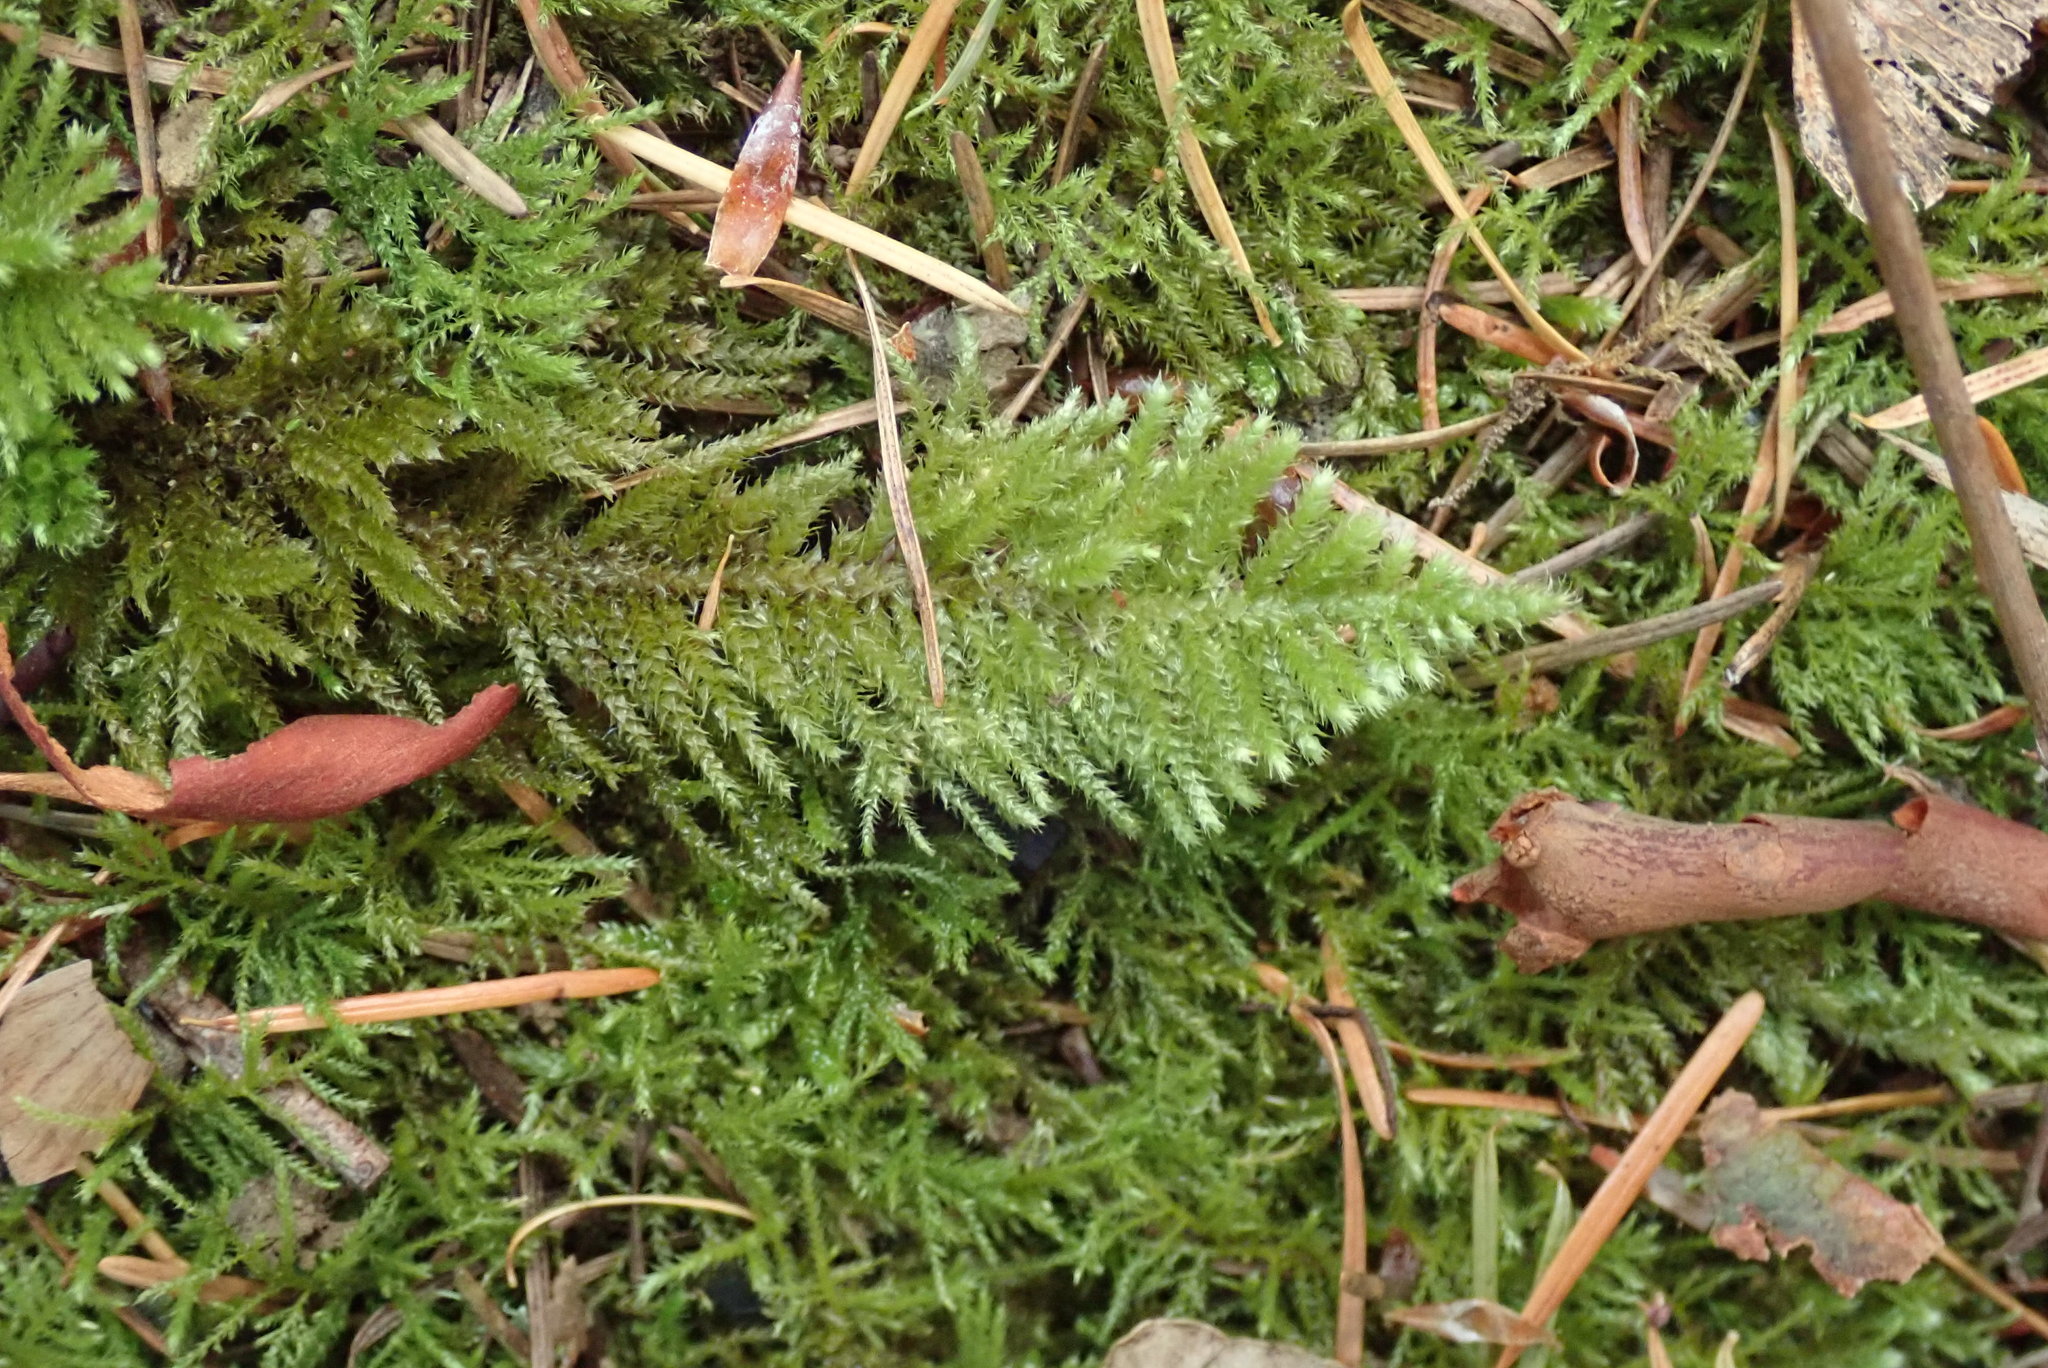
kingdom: Plantae
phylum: Bryophyta
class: Bryopsida
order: Hypnales
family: Brachytheciaceae
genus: Kindbergia
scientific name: Kindbergia oregana
